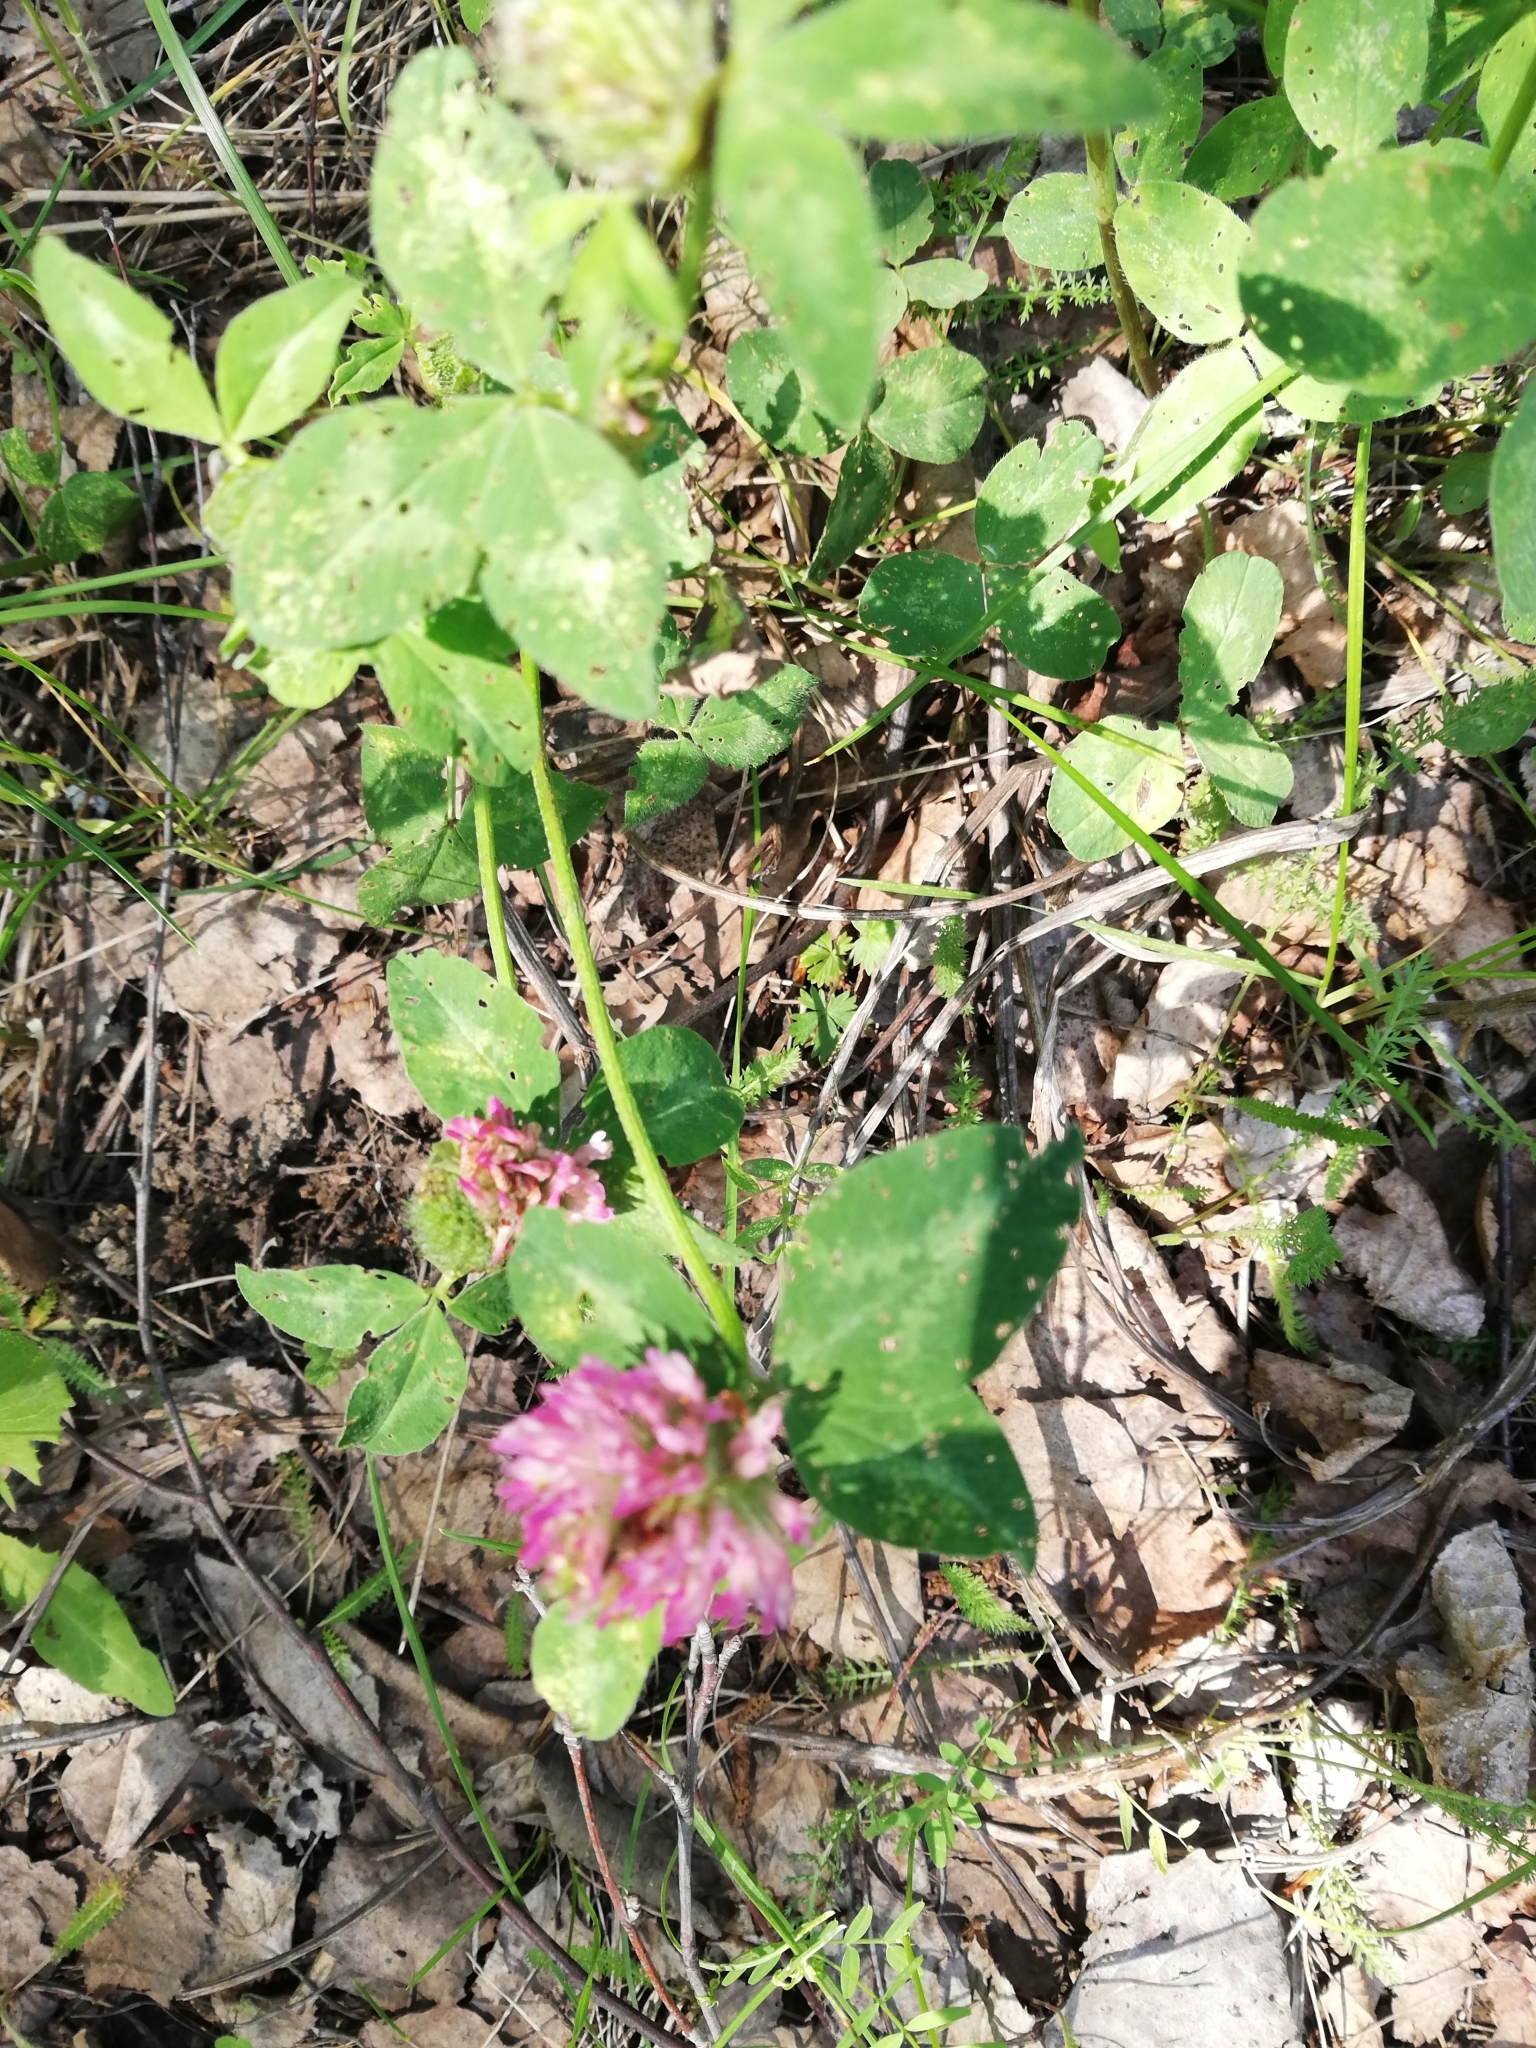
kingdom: Plantae
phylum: Tracheophyta
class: Magnoliopsida
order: Fabales
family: Fabaceae
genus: Trifolium
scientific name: Trifolium pratense
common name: Red clover
